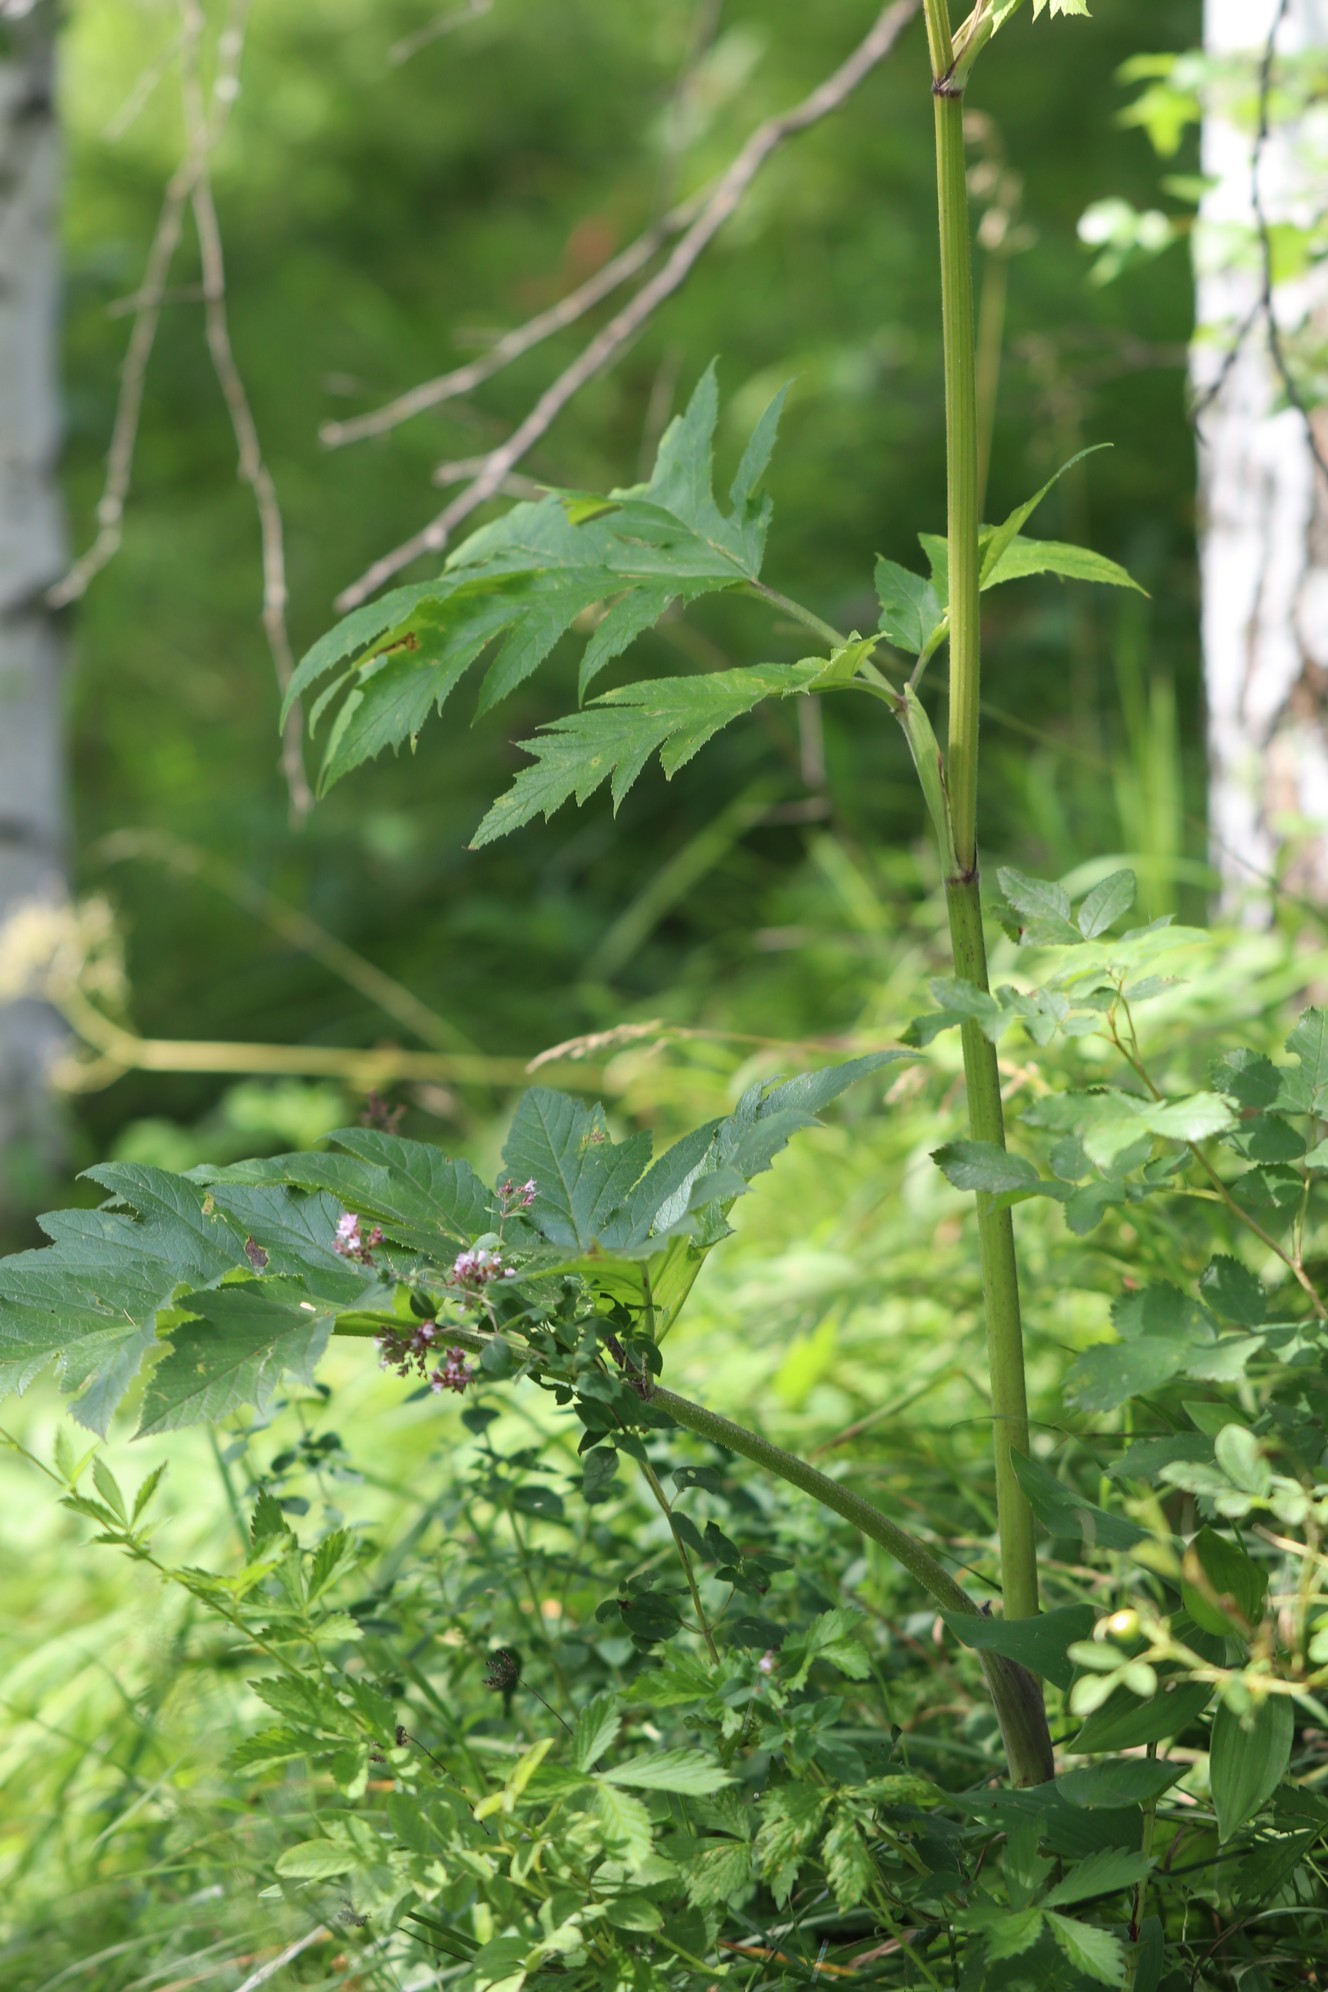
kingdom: Plantae
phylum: Tracheophyta
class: Magnoliopsida
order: Apiales
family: Apiaceae
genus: Heracleum
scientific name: Heracleum dissectum
